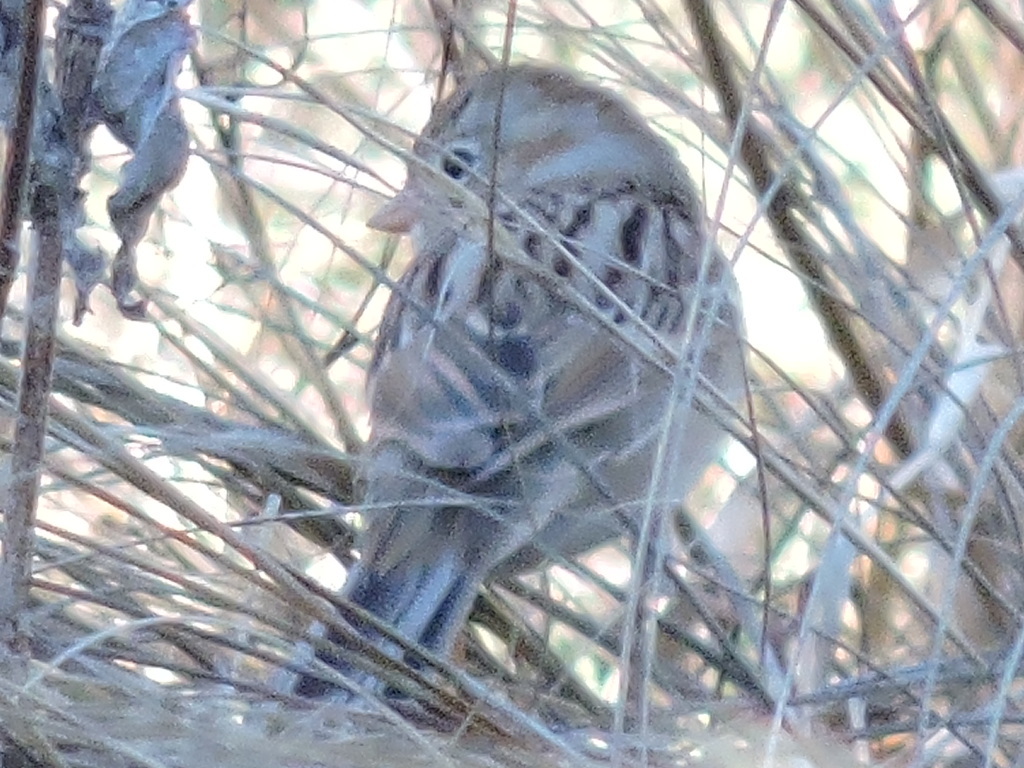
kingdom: Animalia
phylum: Chordata
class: Aves
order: Passeriformes
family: Passerellidae
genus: Spizella
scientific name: Spizella pusilla
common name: Field sparrow
